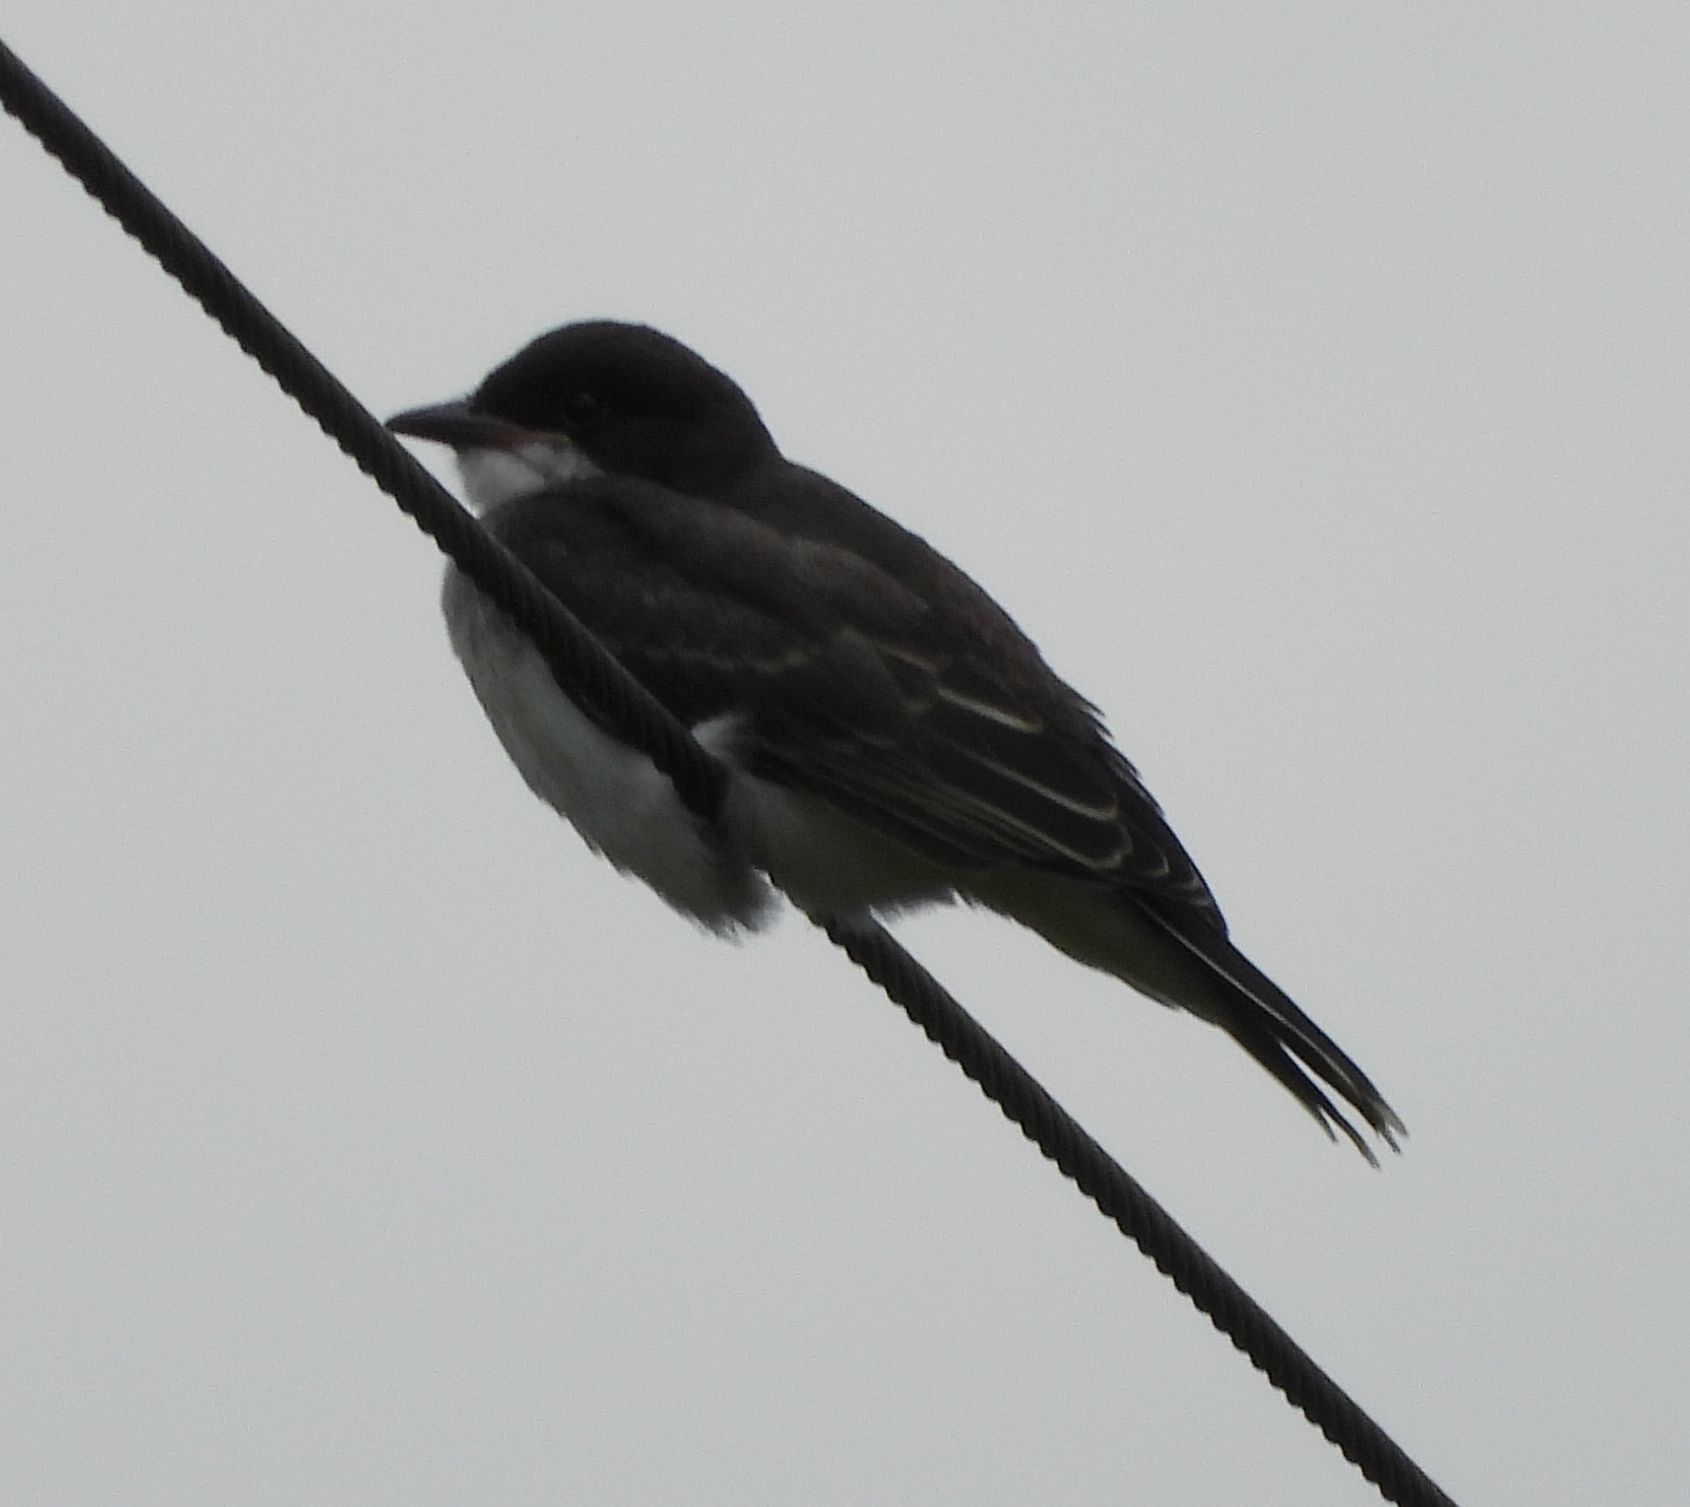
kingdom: Animalia
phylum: Chordata
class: Aves
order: Passeriformes
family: Tyrannidae
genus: Tyrannus
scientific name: Tyrannus tyrannus
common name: Eastern kingbird
